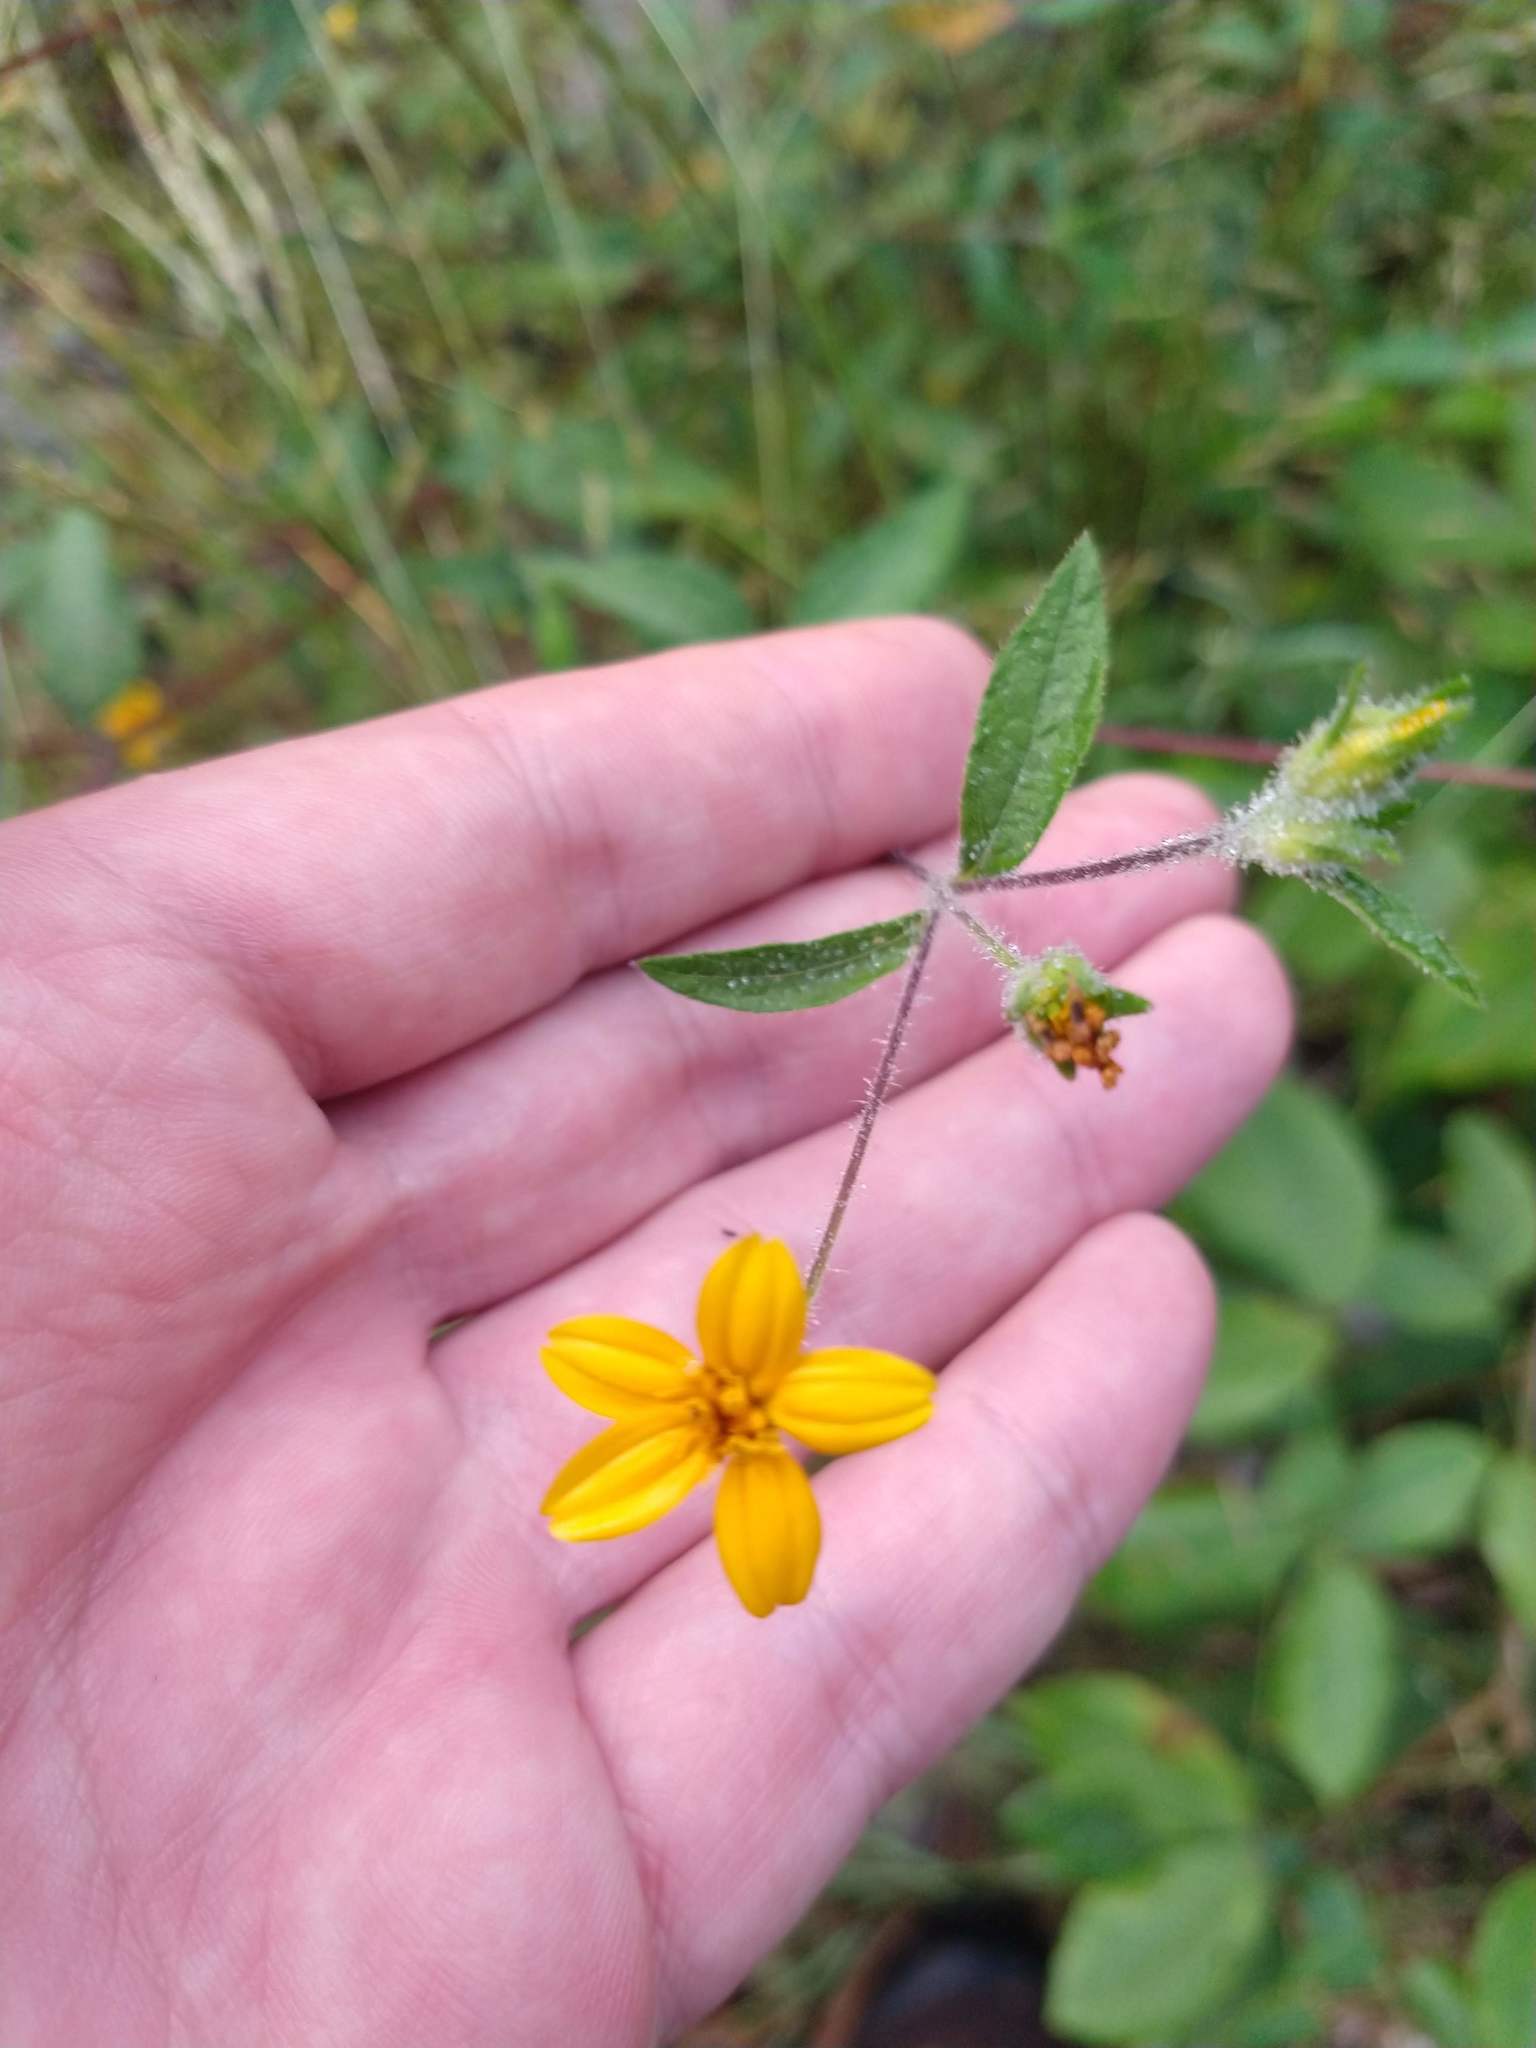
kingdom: Plantae
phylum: Tracheophyta
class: Magnoliopsida
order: Asterales
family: Asteraceae
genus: Wedelia
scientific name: Wedelia acapulcensis
